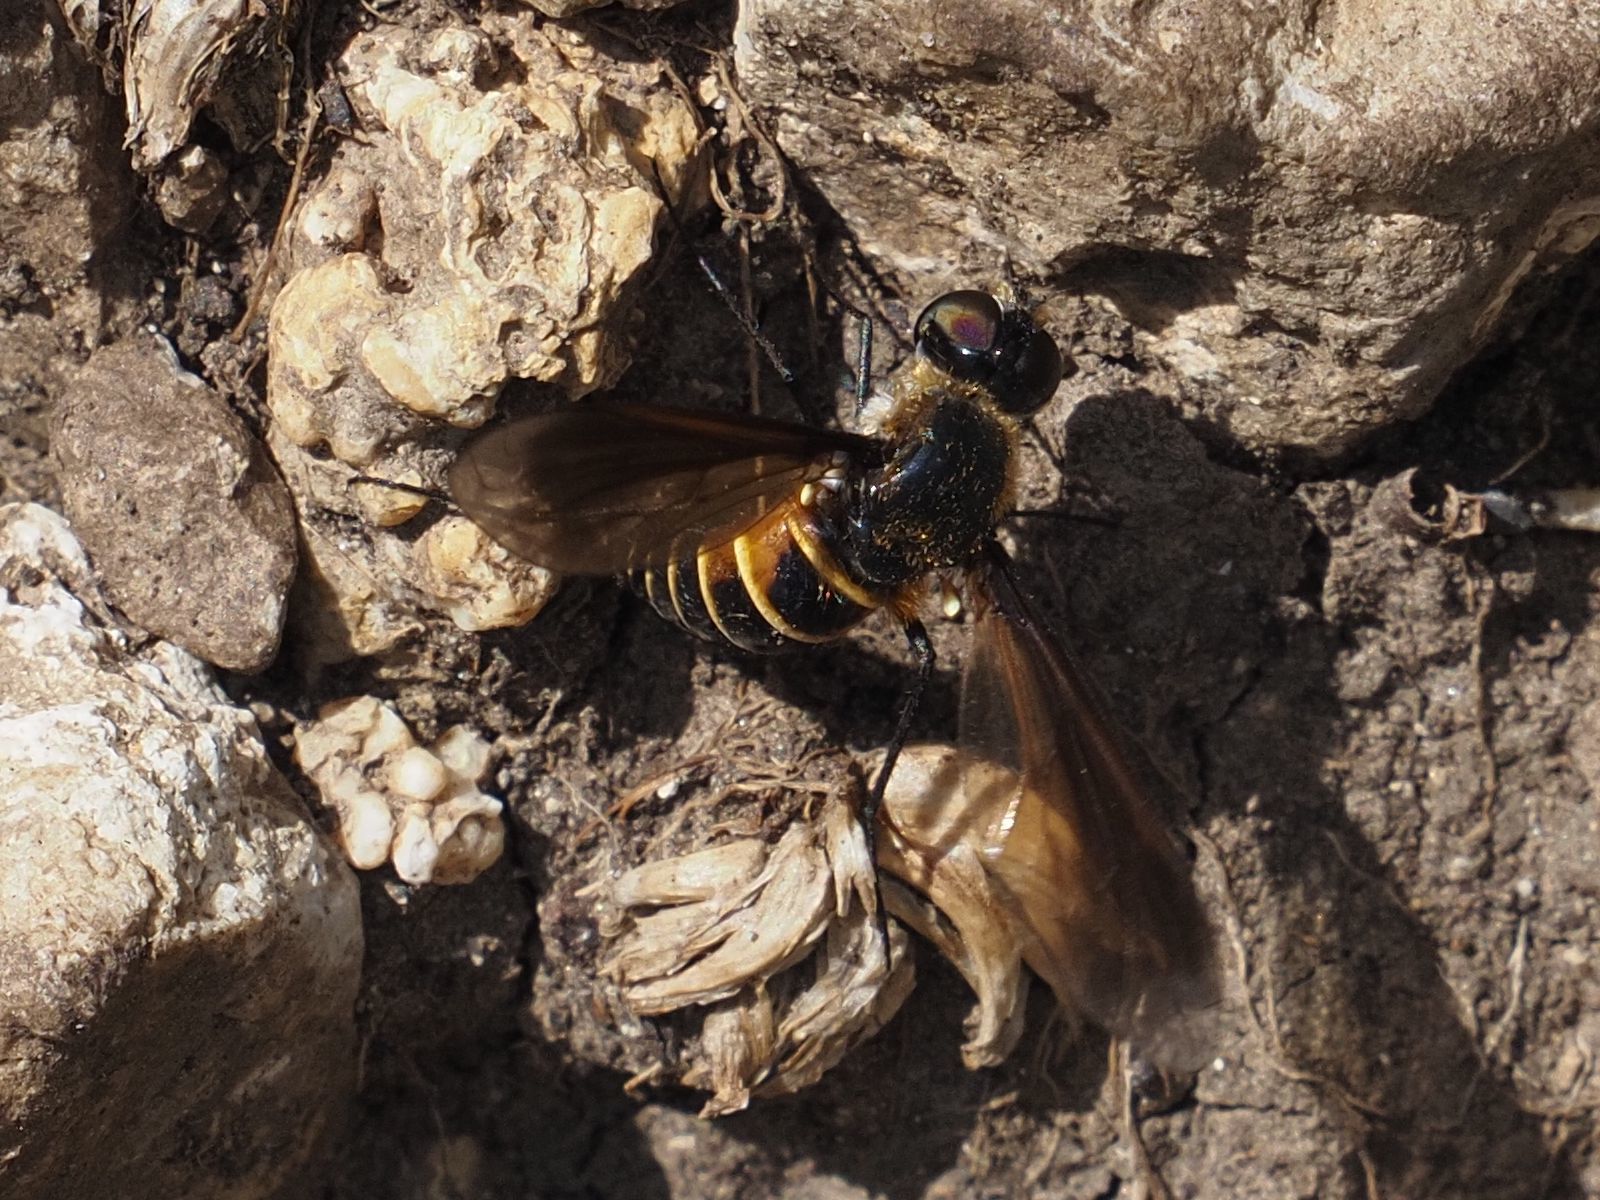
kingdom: Animalia
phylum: Arthropoda
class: Insecta
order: Diptera
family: Bombyliidae
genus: Lomatia
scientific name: Lomatia lateralis
